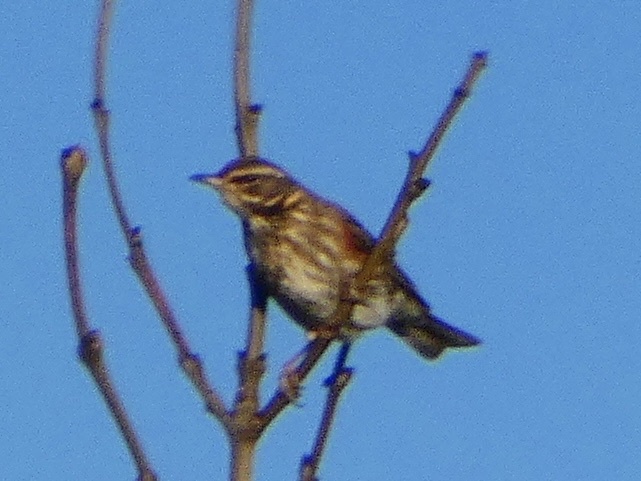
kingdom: Animalia
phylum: Chordata
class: Aves
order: Passeriformes
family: Turdidae
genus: Turdus
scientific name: Turdus iliacus
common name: Redwing
